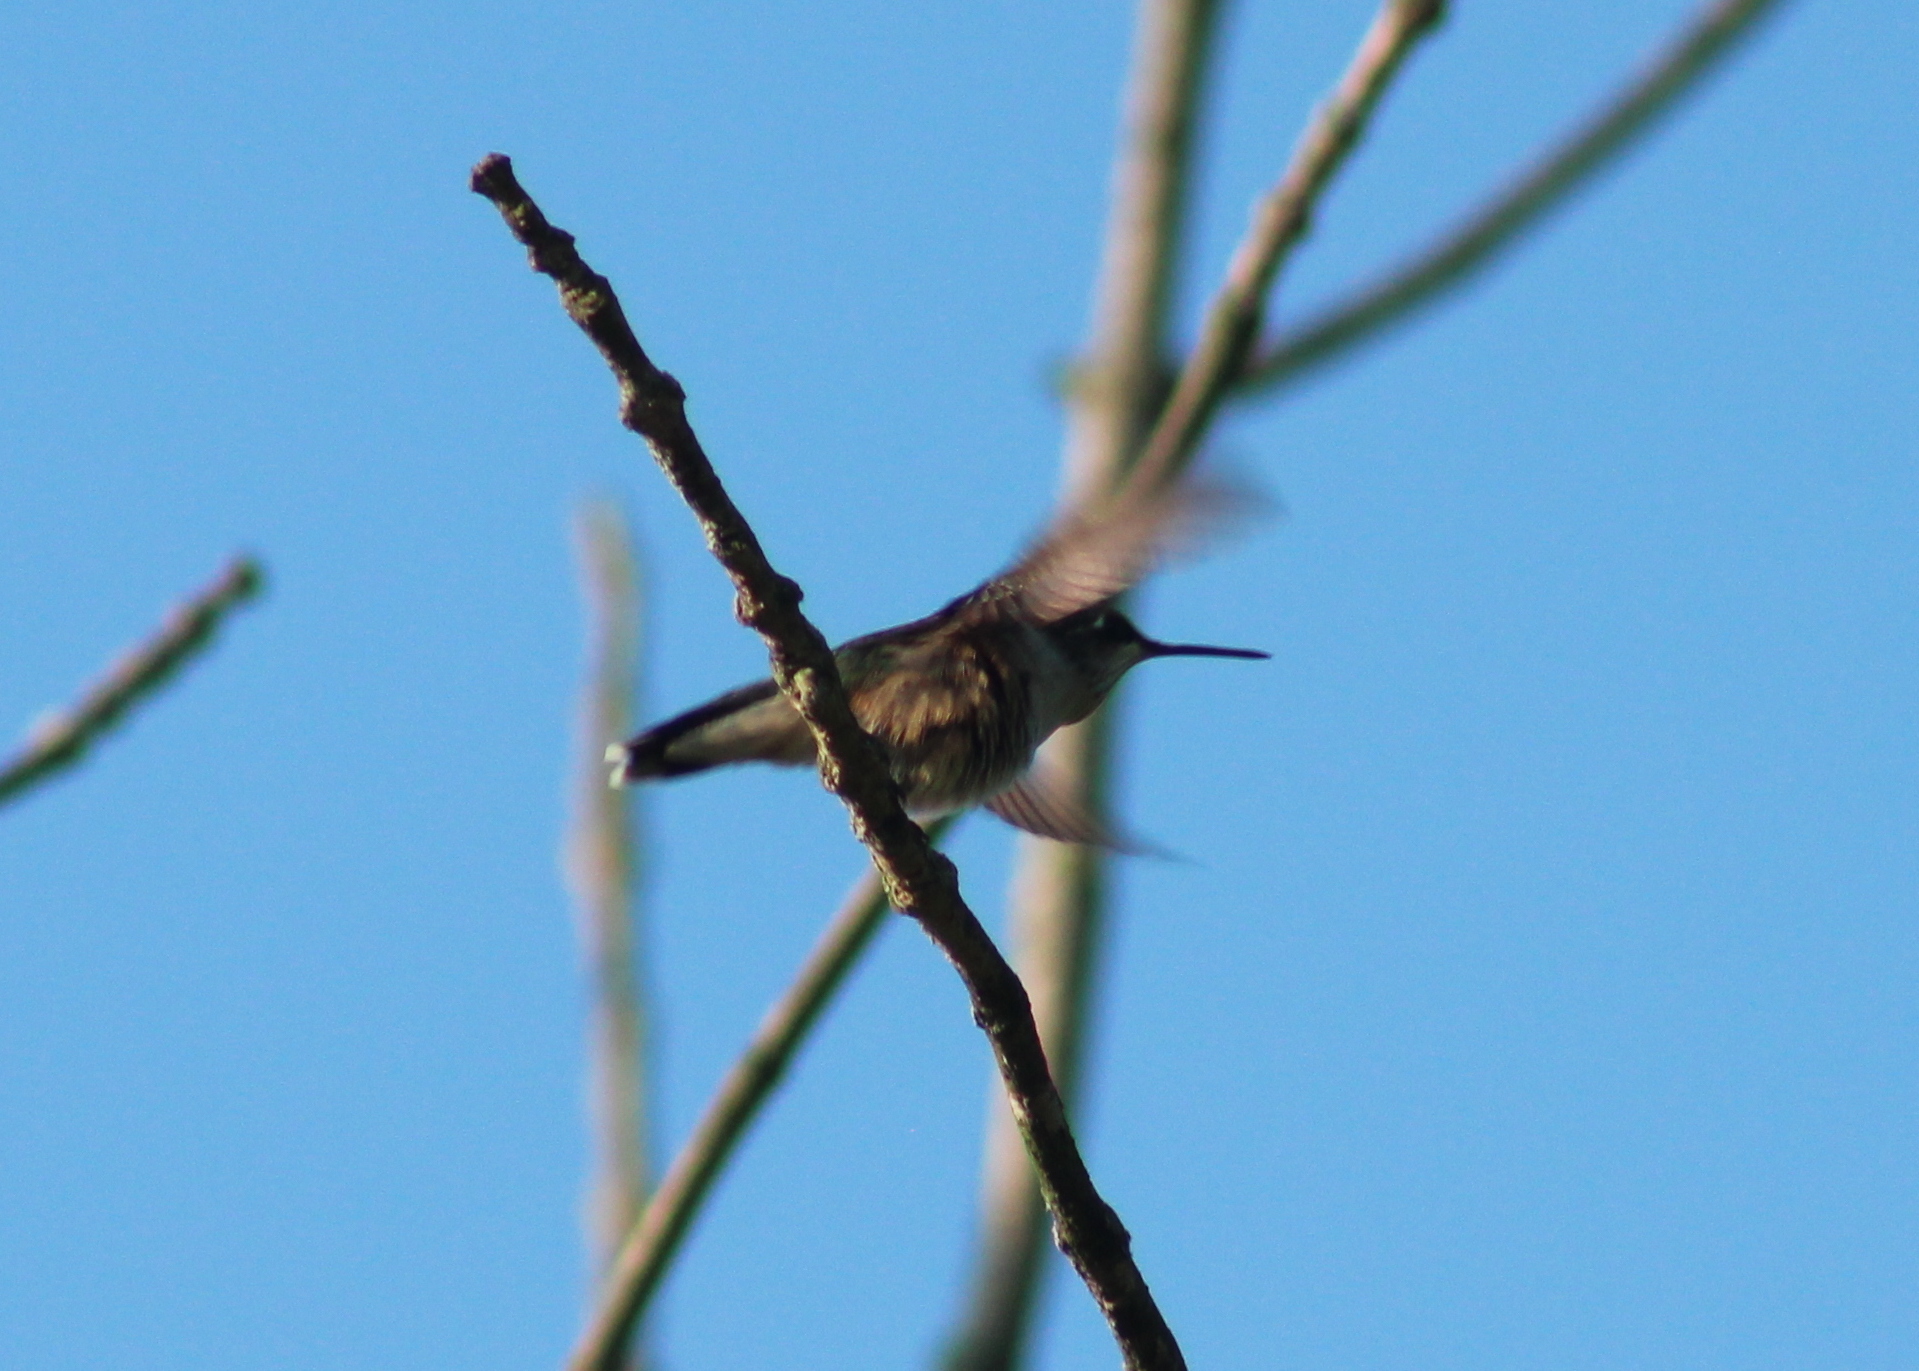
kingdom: Animalia
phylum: Chordata
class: Aves
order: Apodiformes
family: Trochilidae
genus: Archilochus
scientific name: Archilochus colubris
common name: Ruby-throated hummingbird
